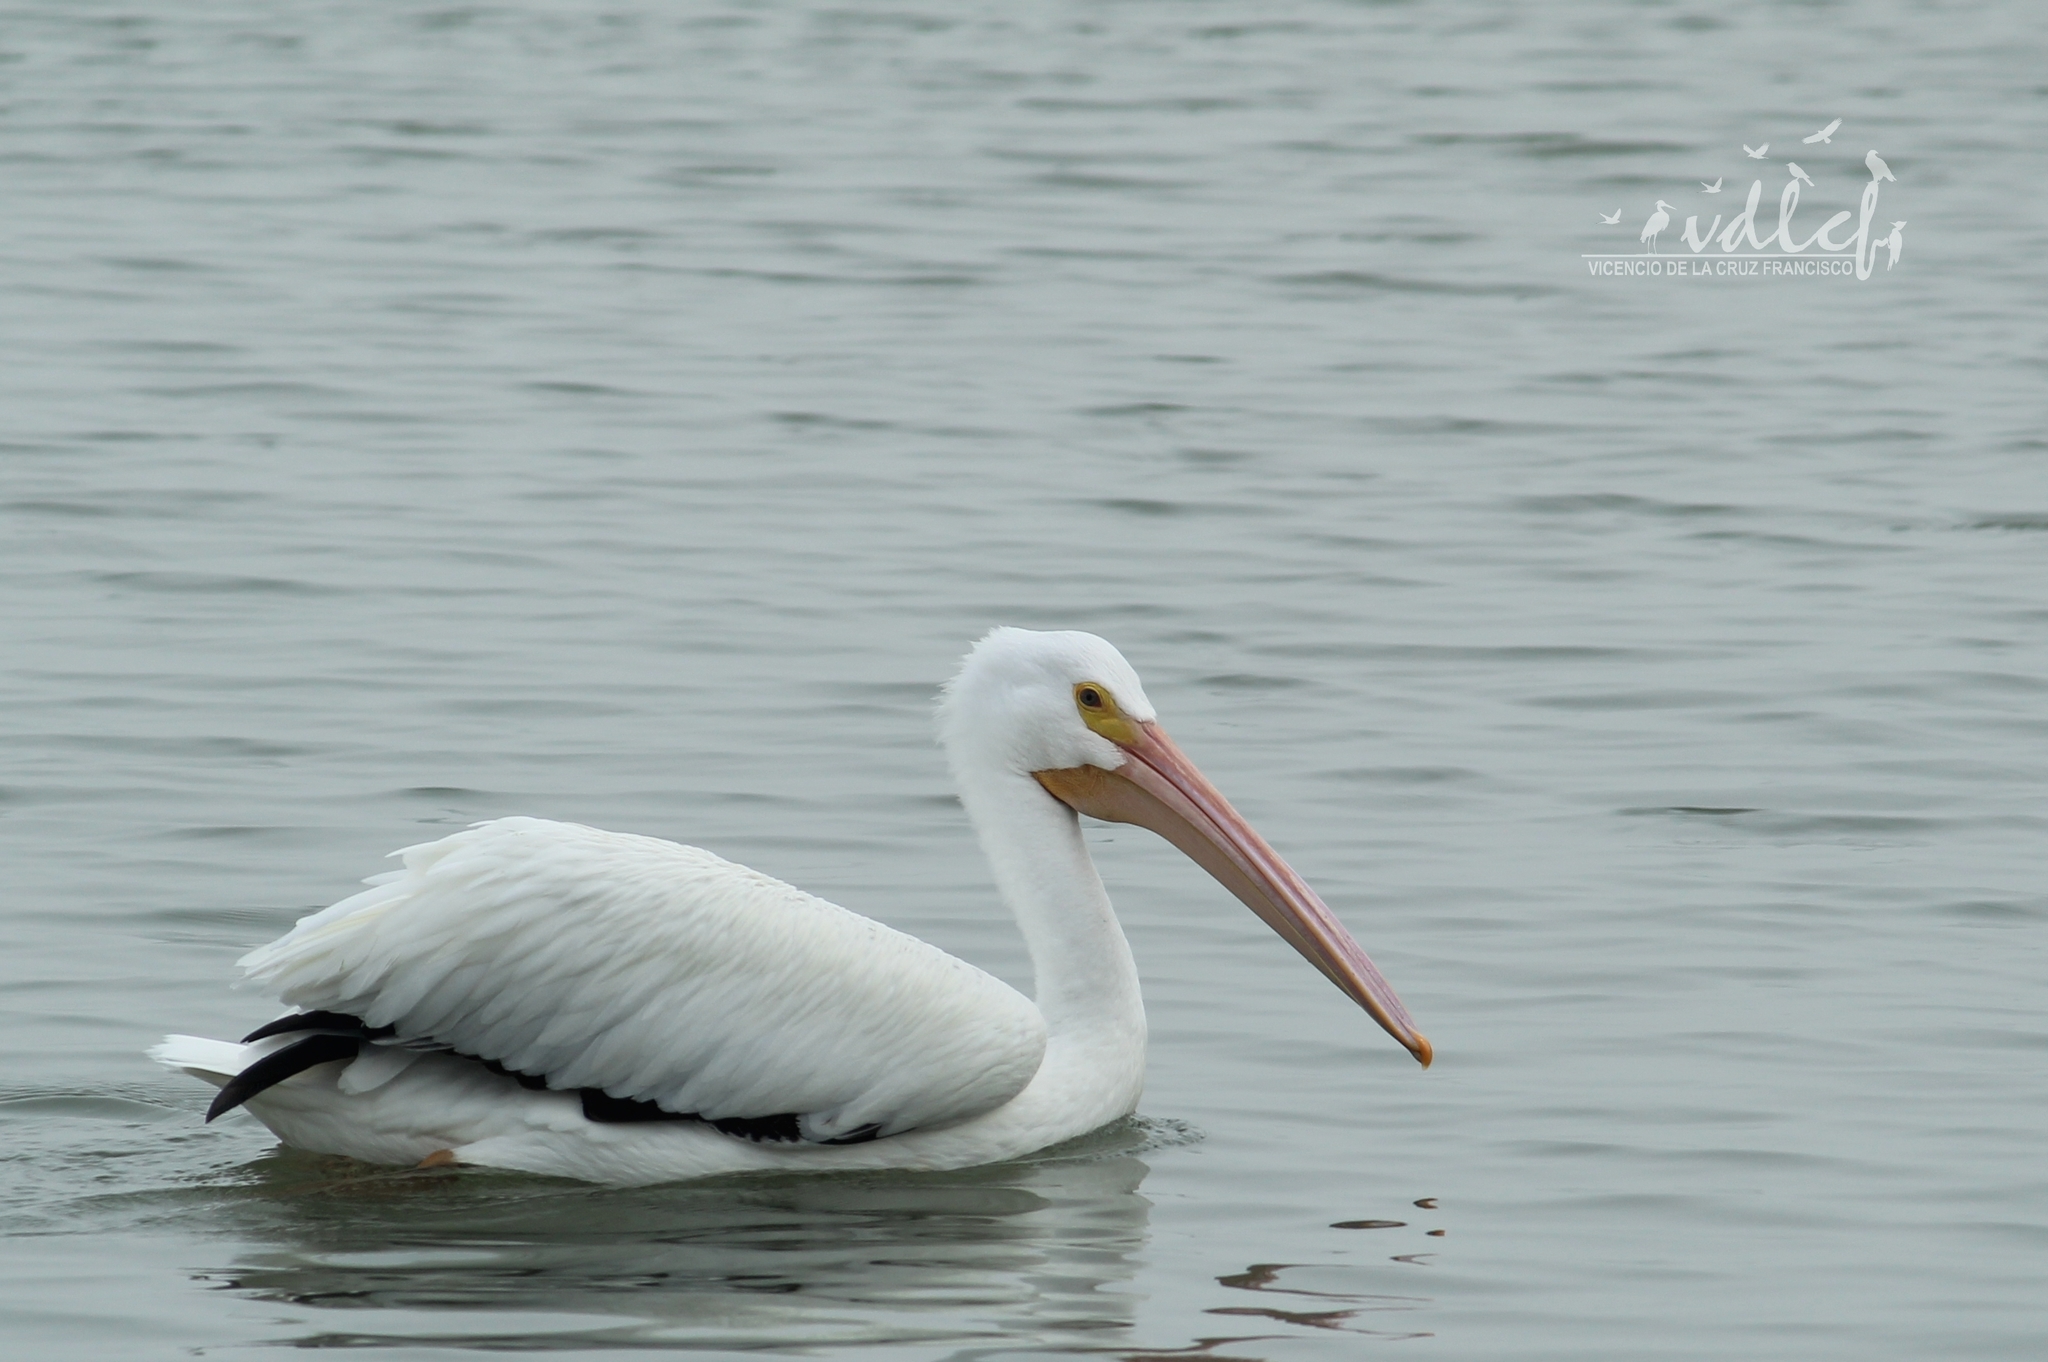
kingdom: Animalia
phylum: Chordata
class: Aves
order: Pelecaniformes
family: Pelecanidae
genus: Pelecanus
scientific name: Pelecanus erythrorhynchos
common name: American white pelican
